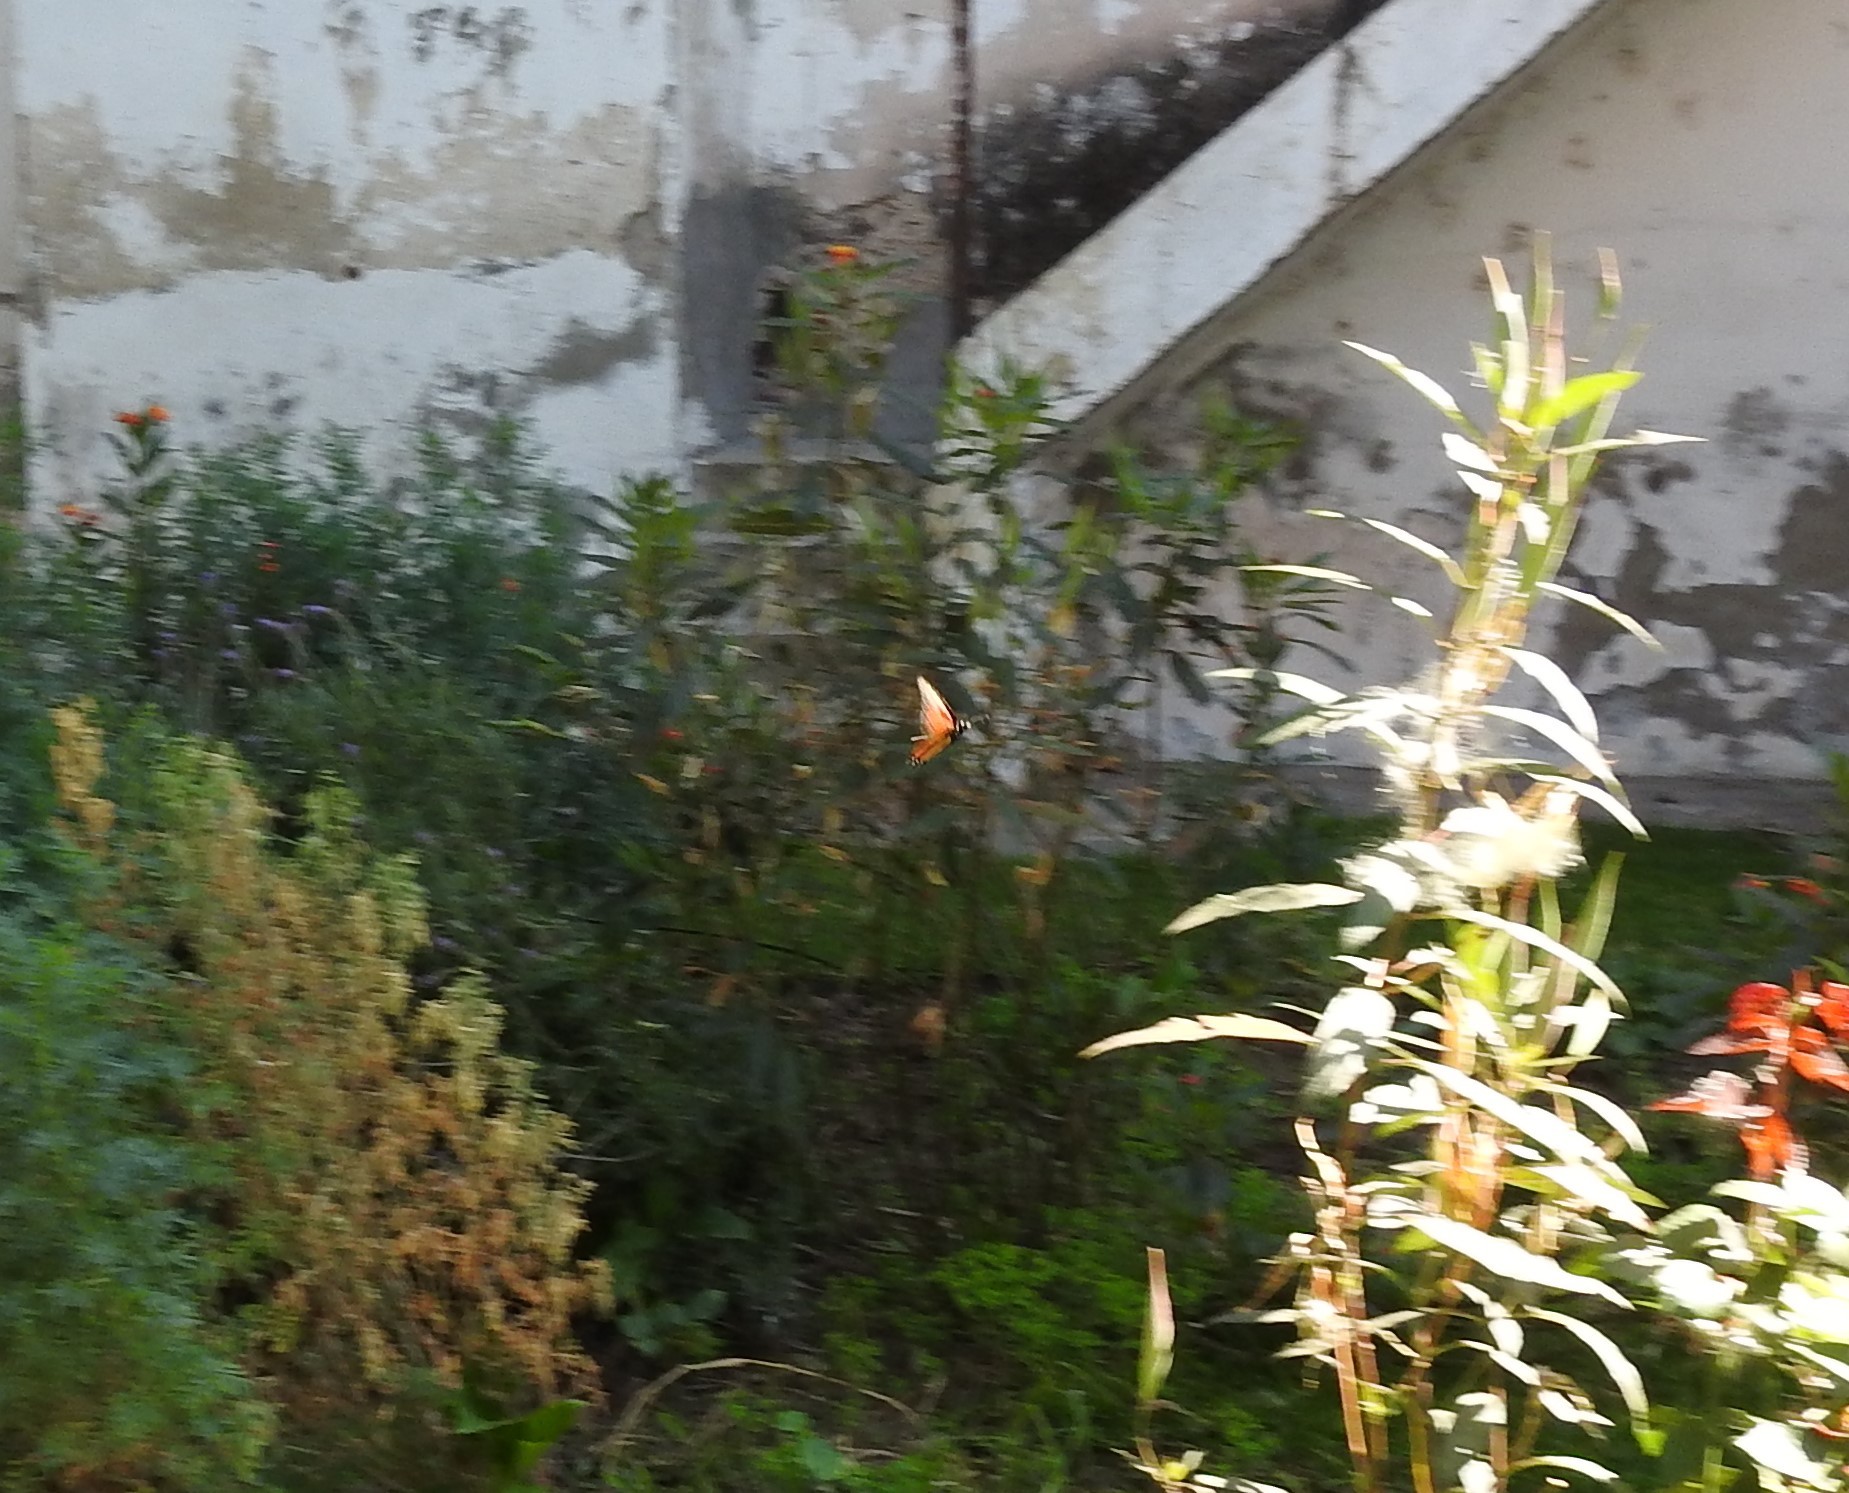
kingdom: Animalia
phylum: Arthropoda
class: Insecta
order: Lepidoptera
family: Nymphalidae
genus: Danaus
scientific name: Danaus plexippus
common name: Monarch
